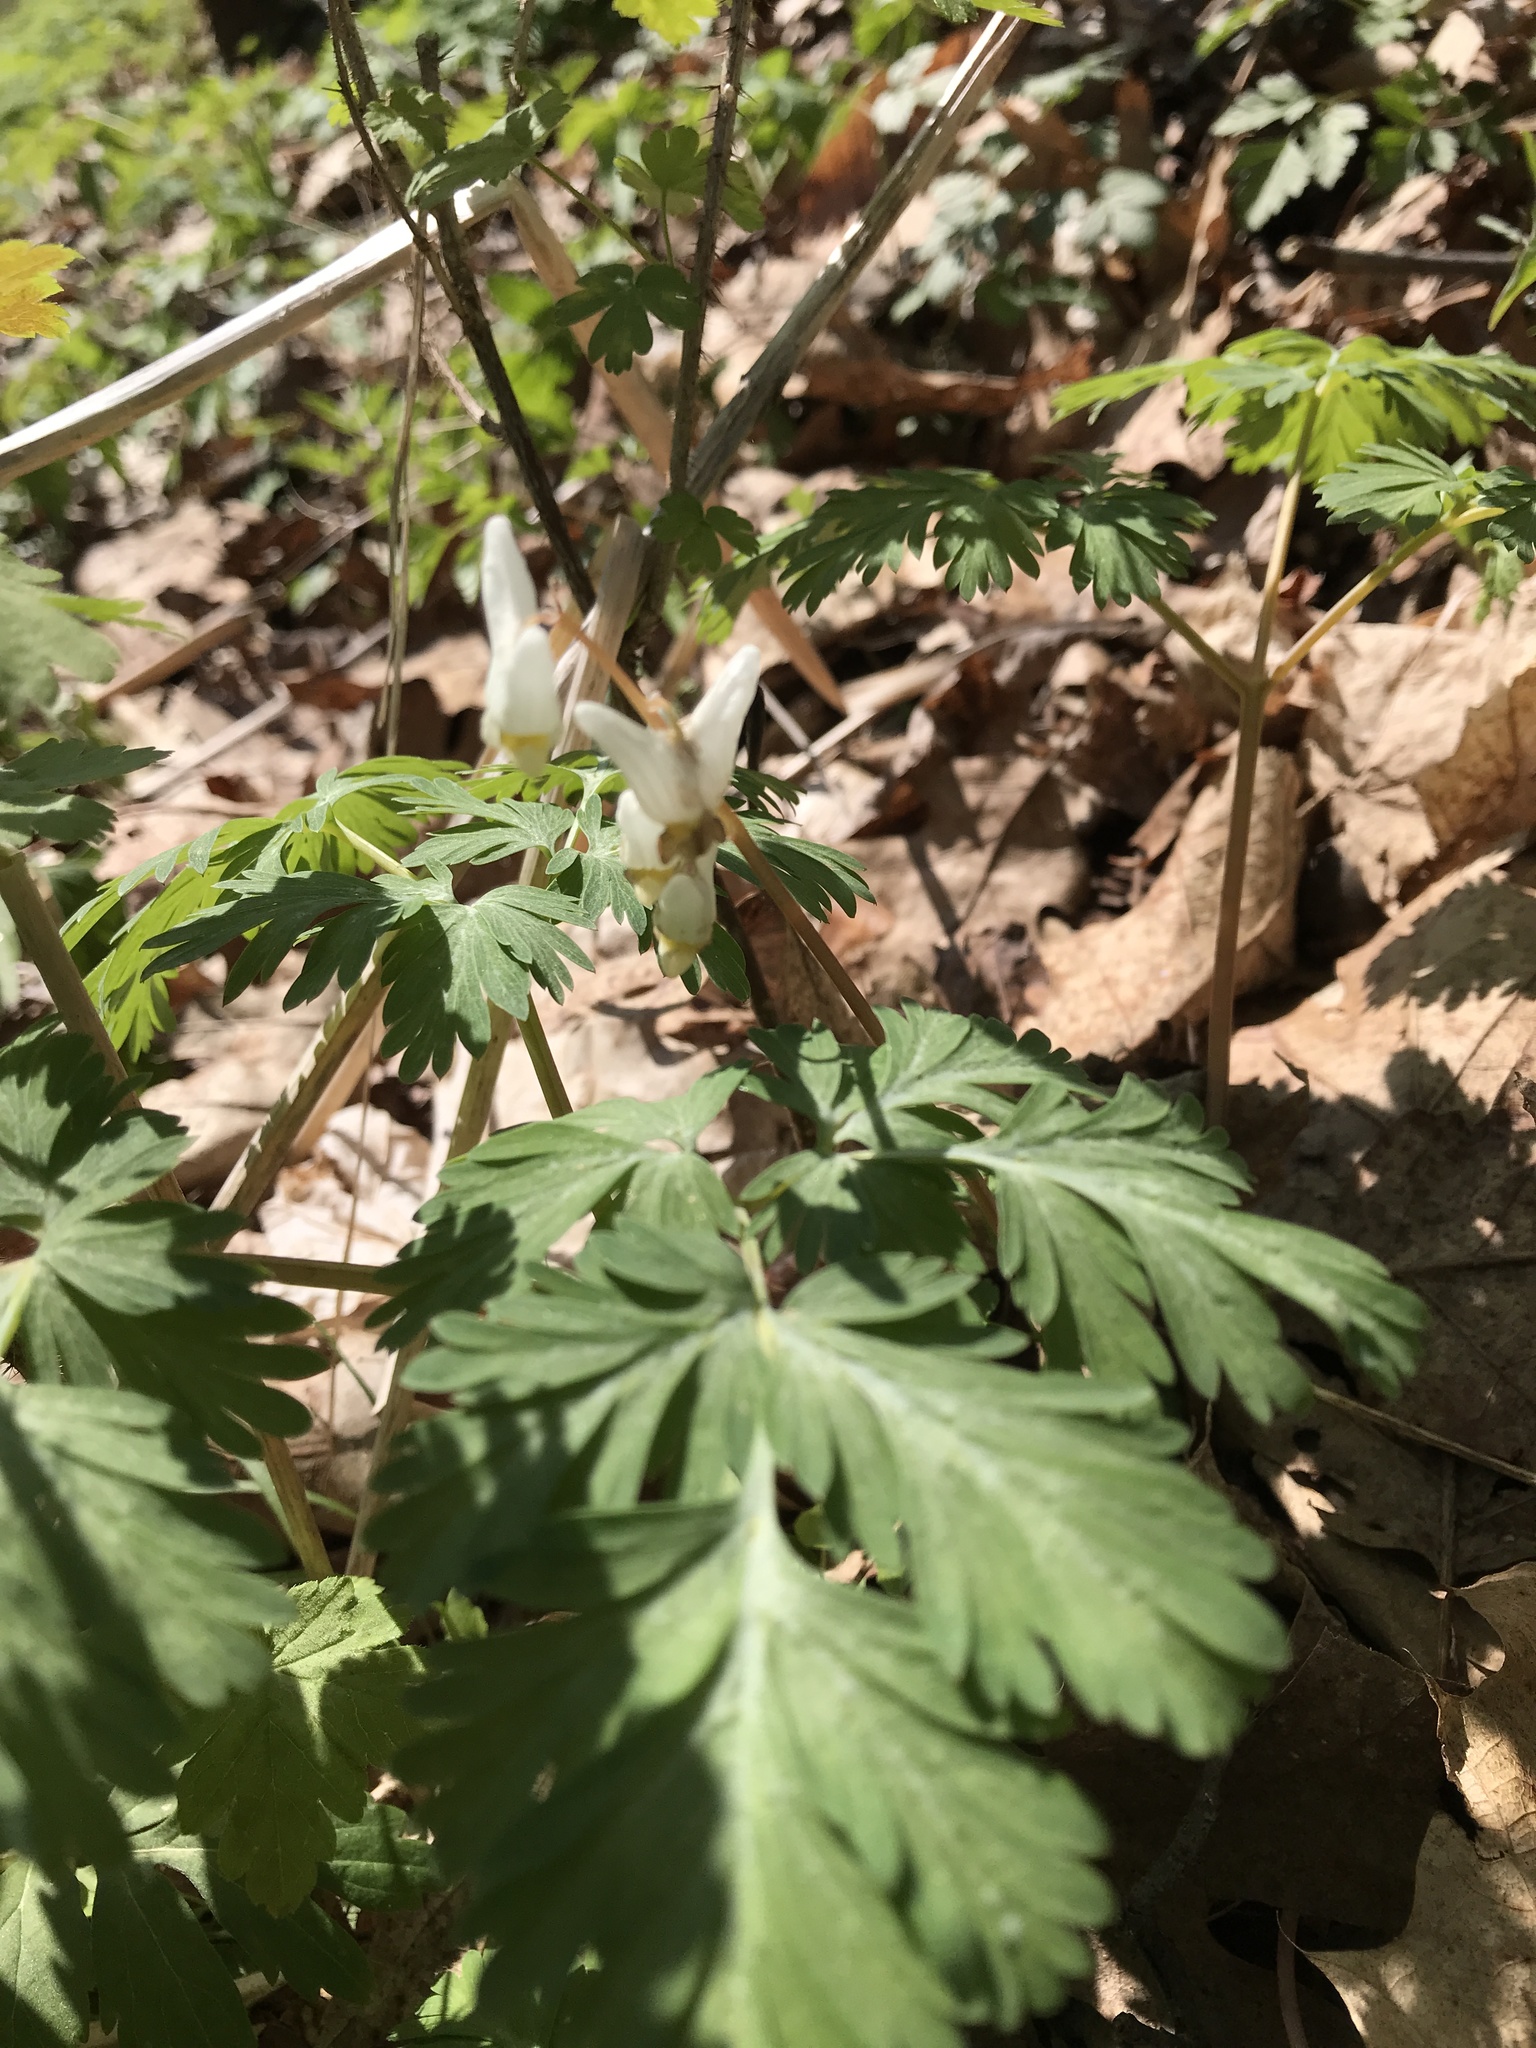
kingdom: Plantae
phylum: Tracheophyta
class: Magnoliopsida
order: Ranunculales
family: Papaveraceae
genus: Dicentra
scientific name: Dicentra cucullaria
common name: Dutchman's breeches
